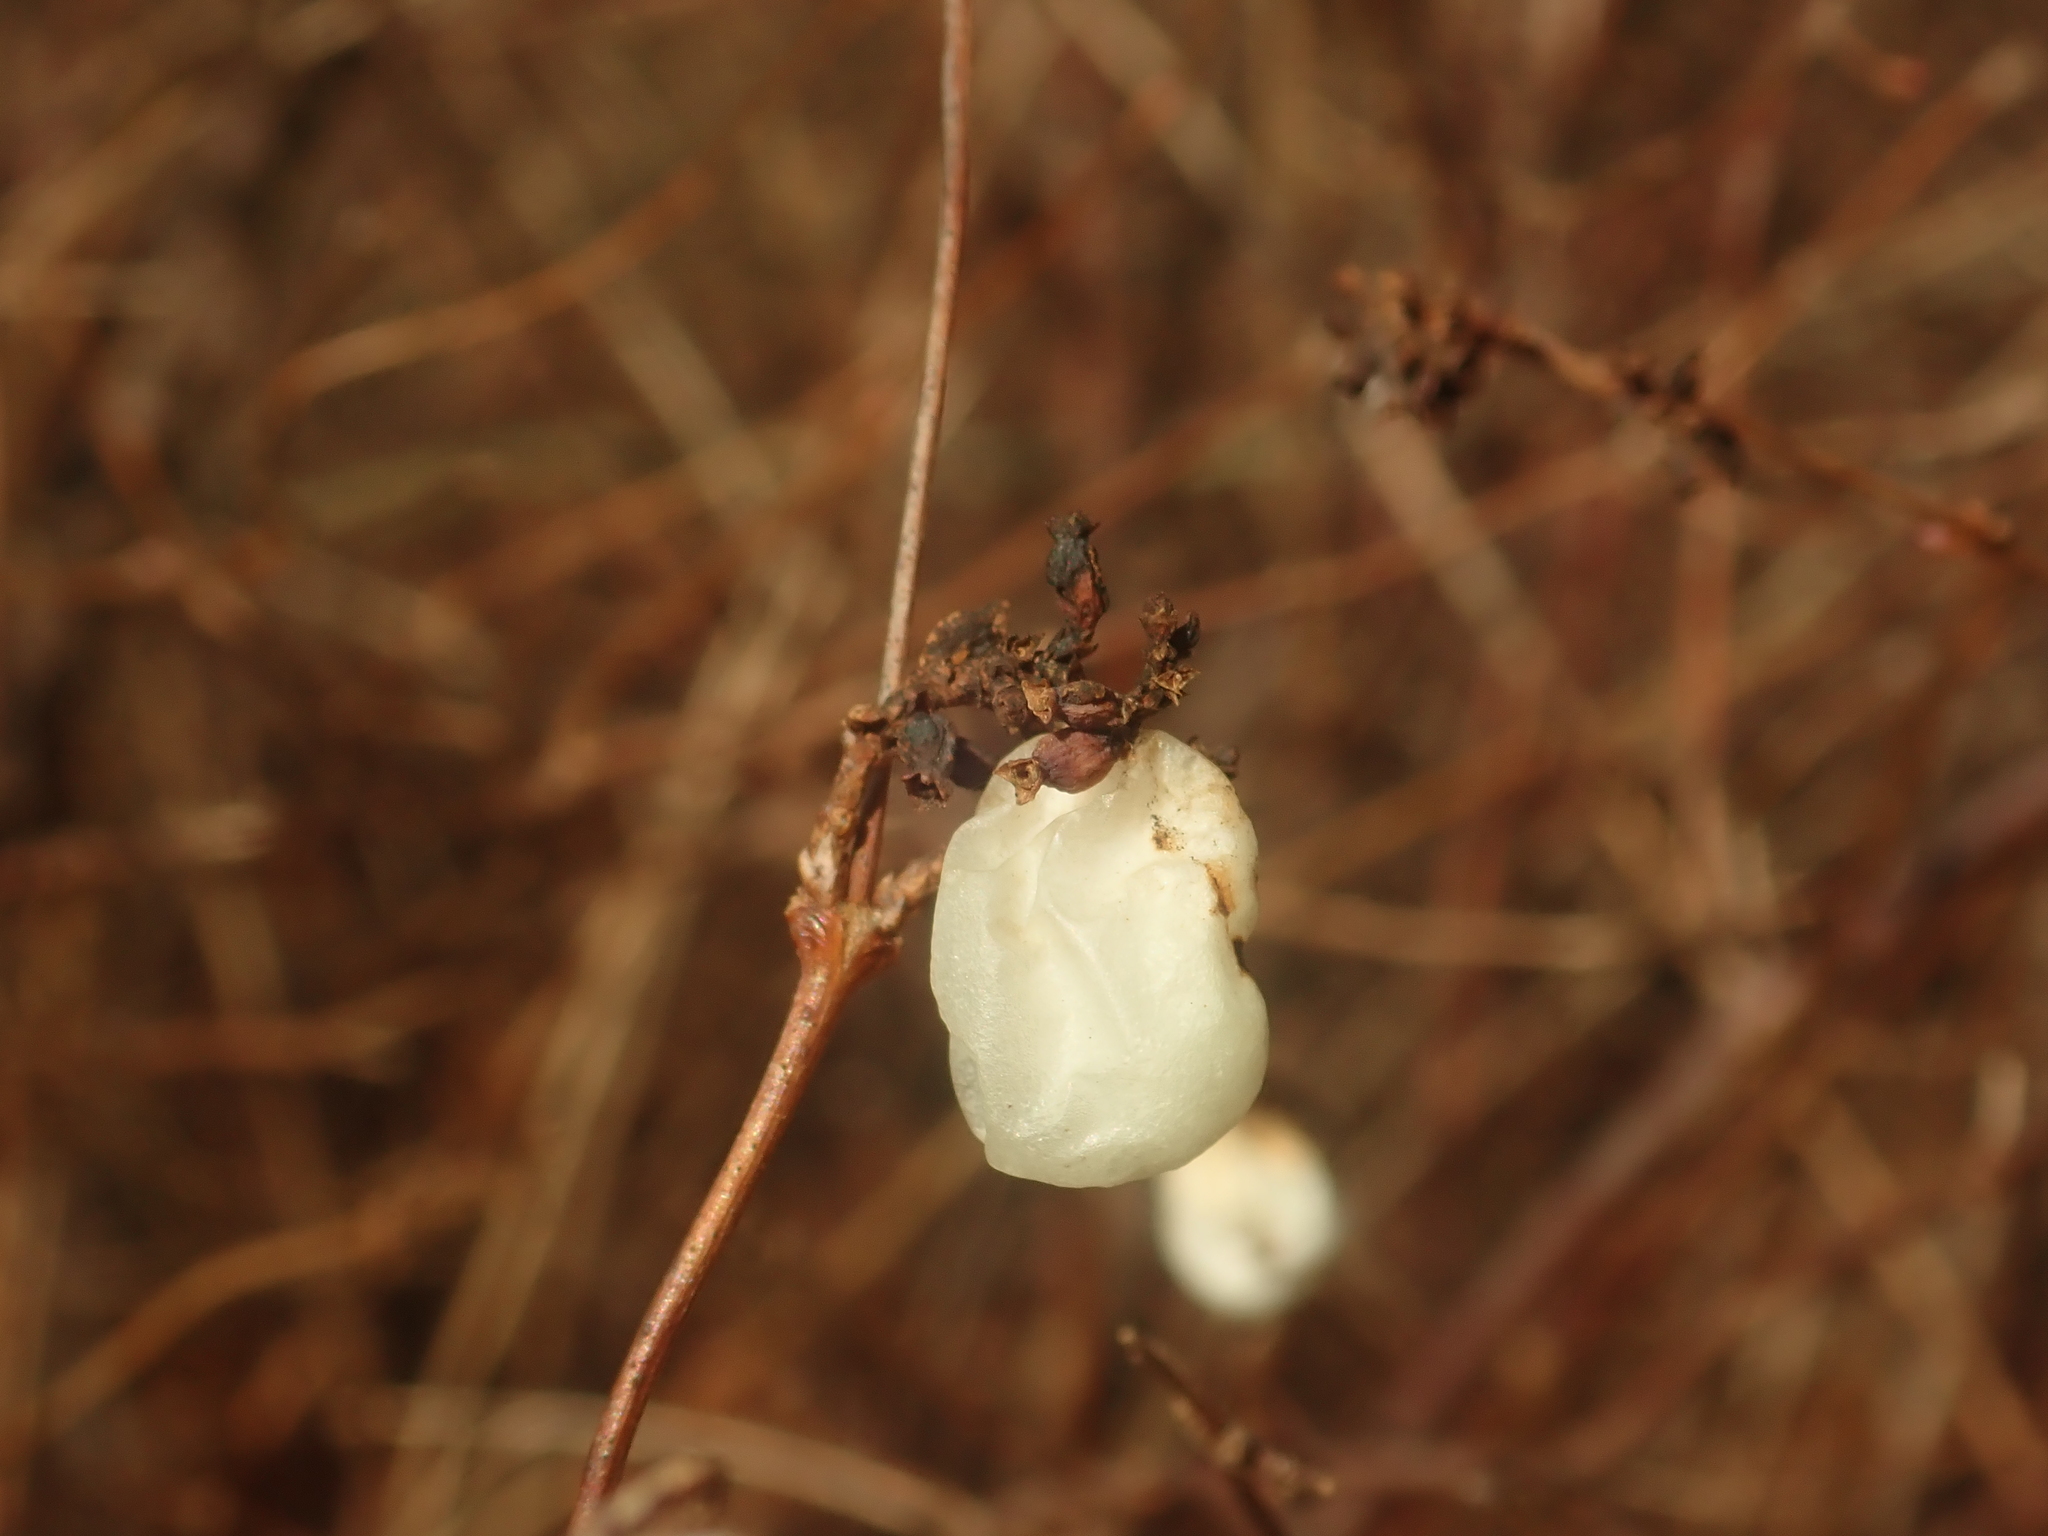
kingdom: Plantae
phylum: Tracheophyta
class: Magnoliopsida
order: Dipsacales
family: Caprifoliaceae
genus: Symphoricarpos
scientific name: Symphoricarpos albus
